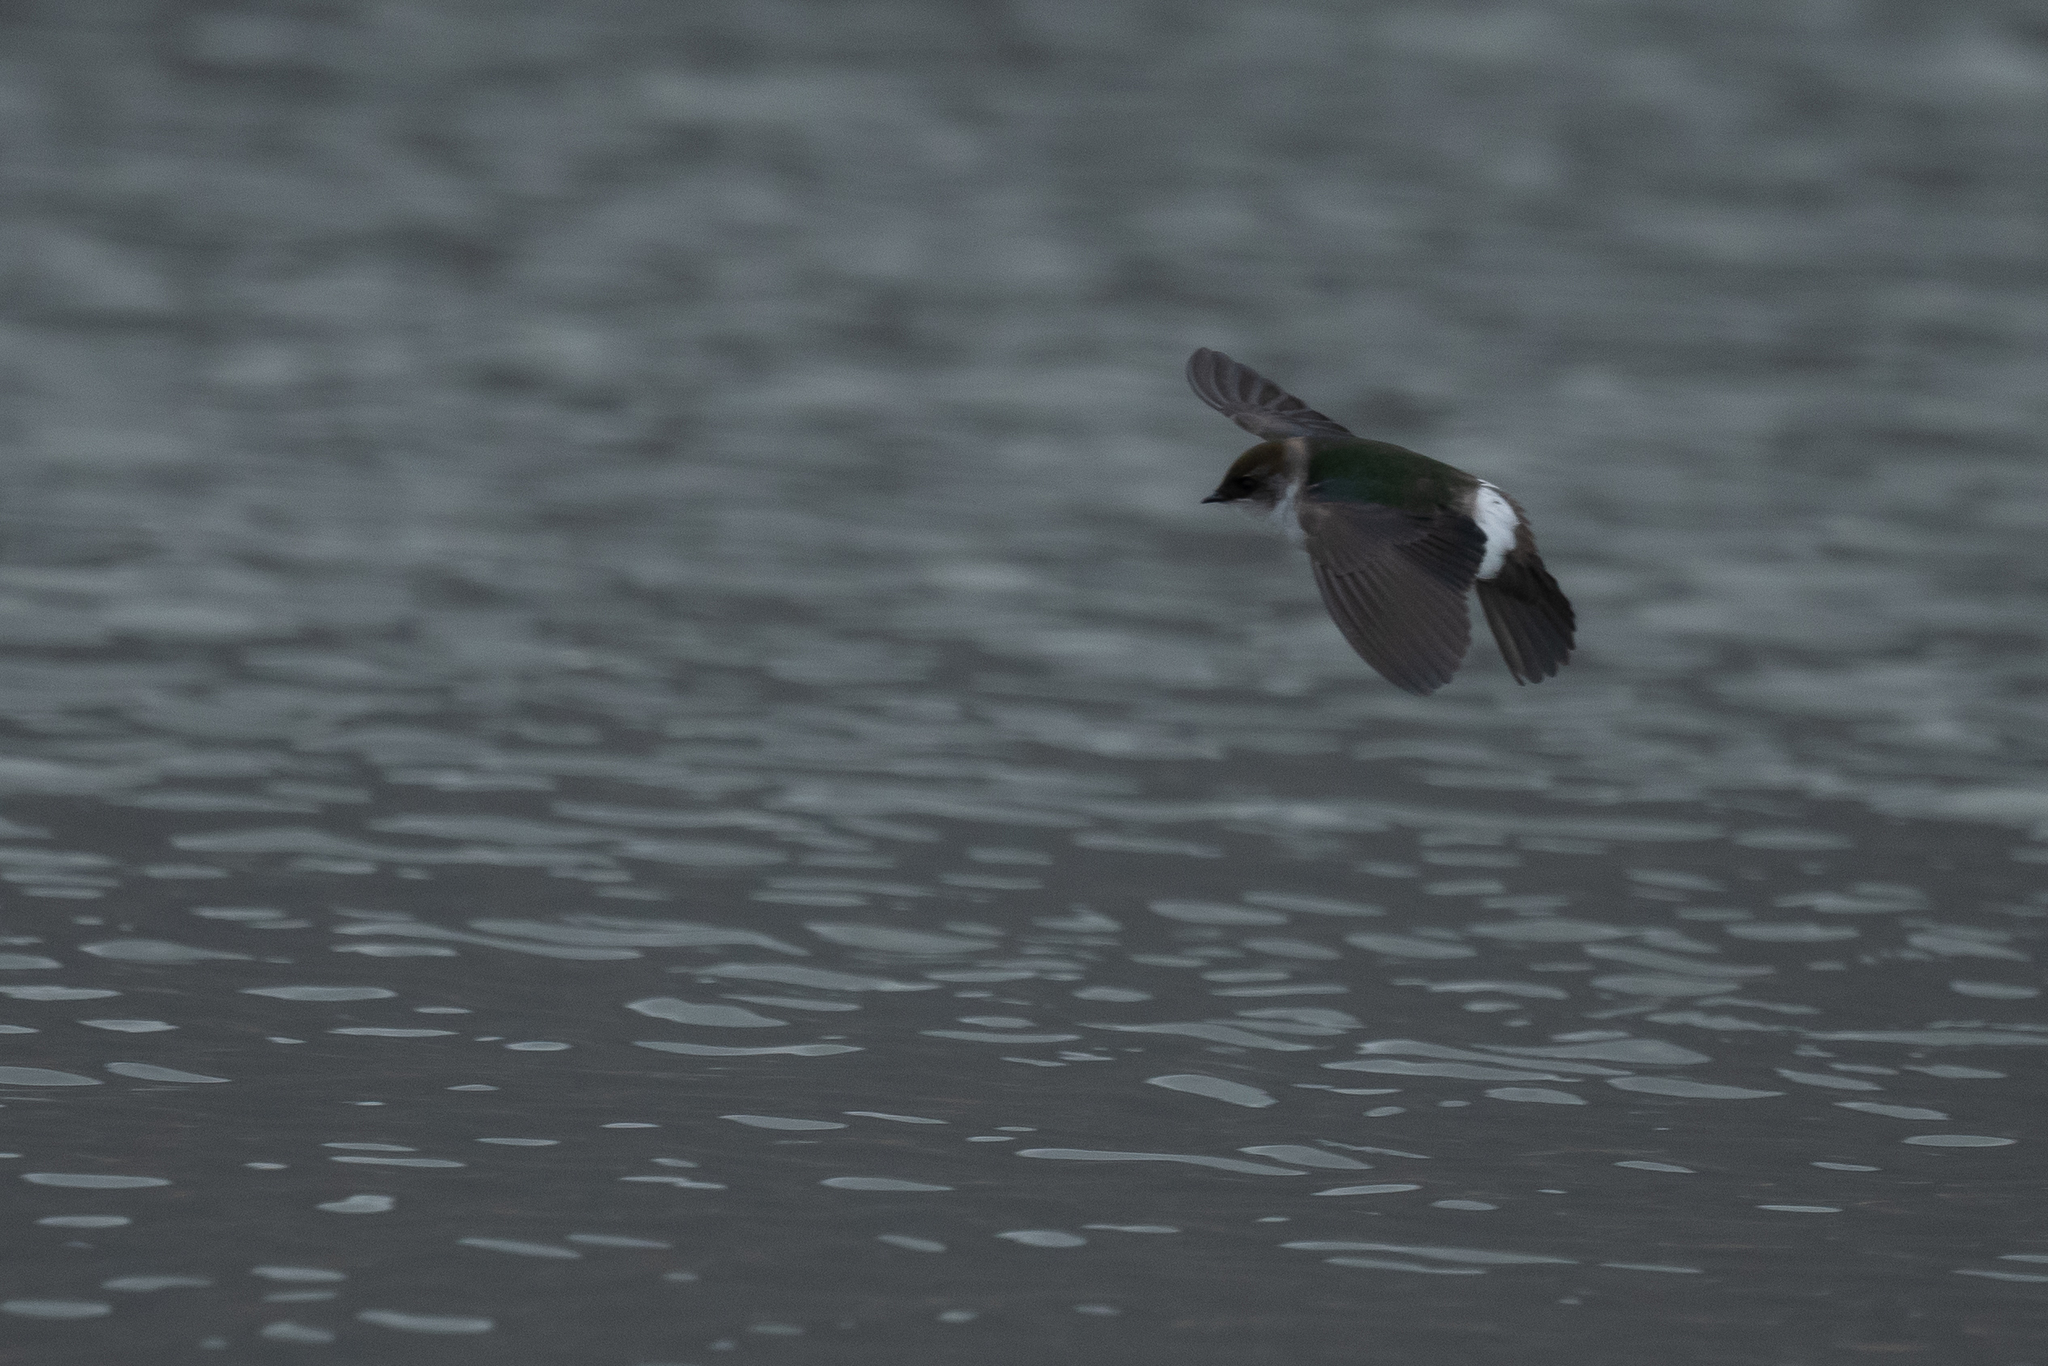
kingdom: Animalia
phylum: Chordata
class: Aves
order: Passeriformes
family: Hirundinidae
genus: Tachycineta
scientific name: Tachycineta thalassina
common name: Violet-green swallow
